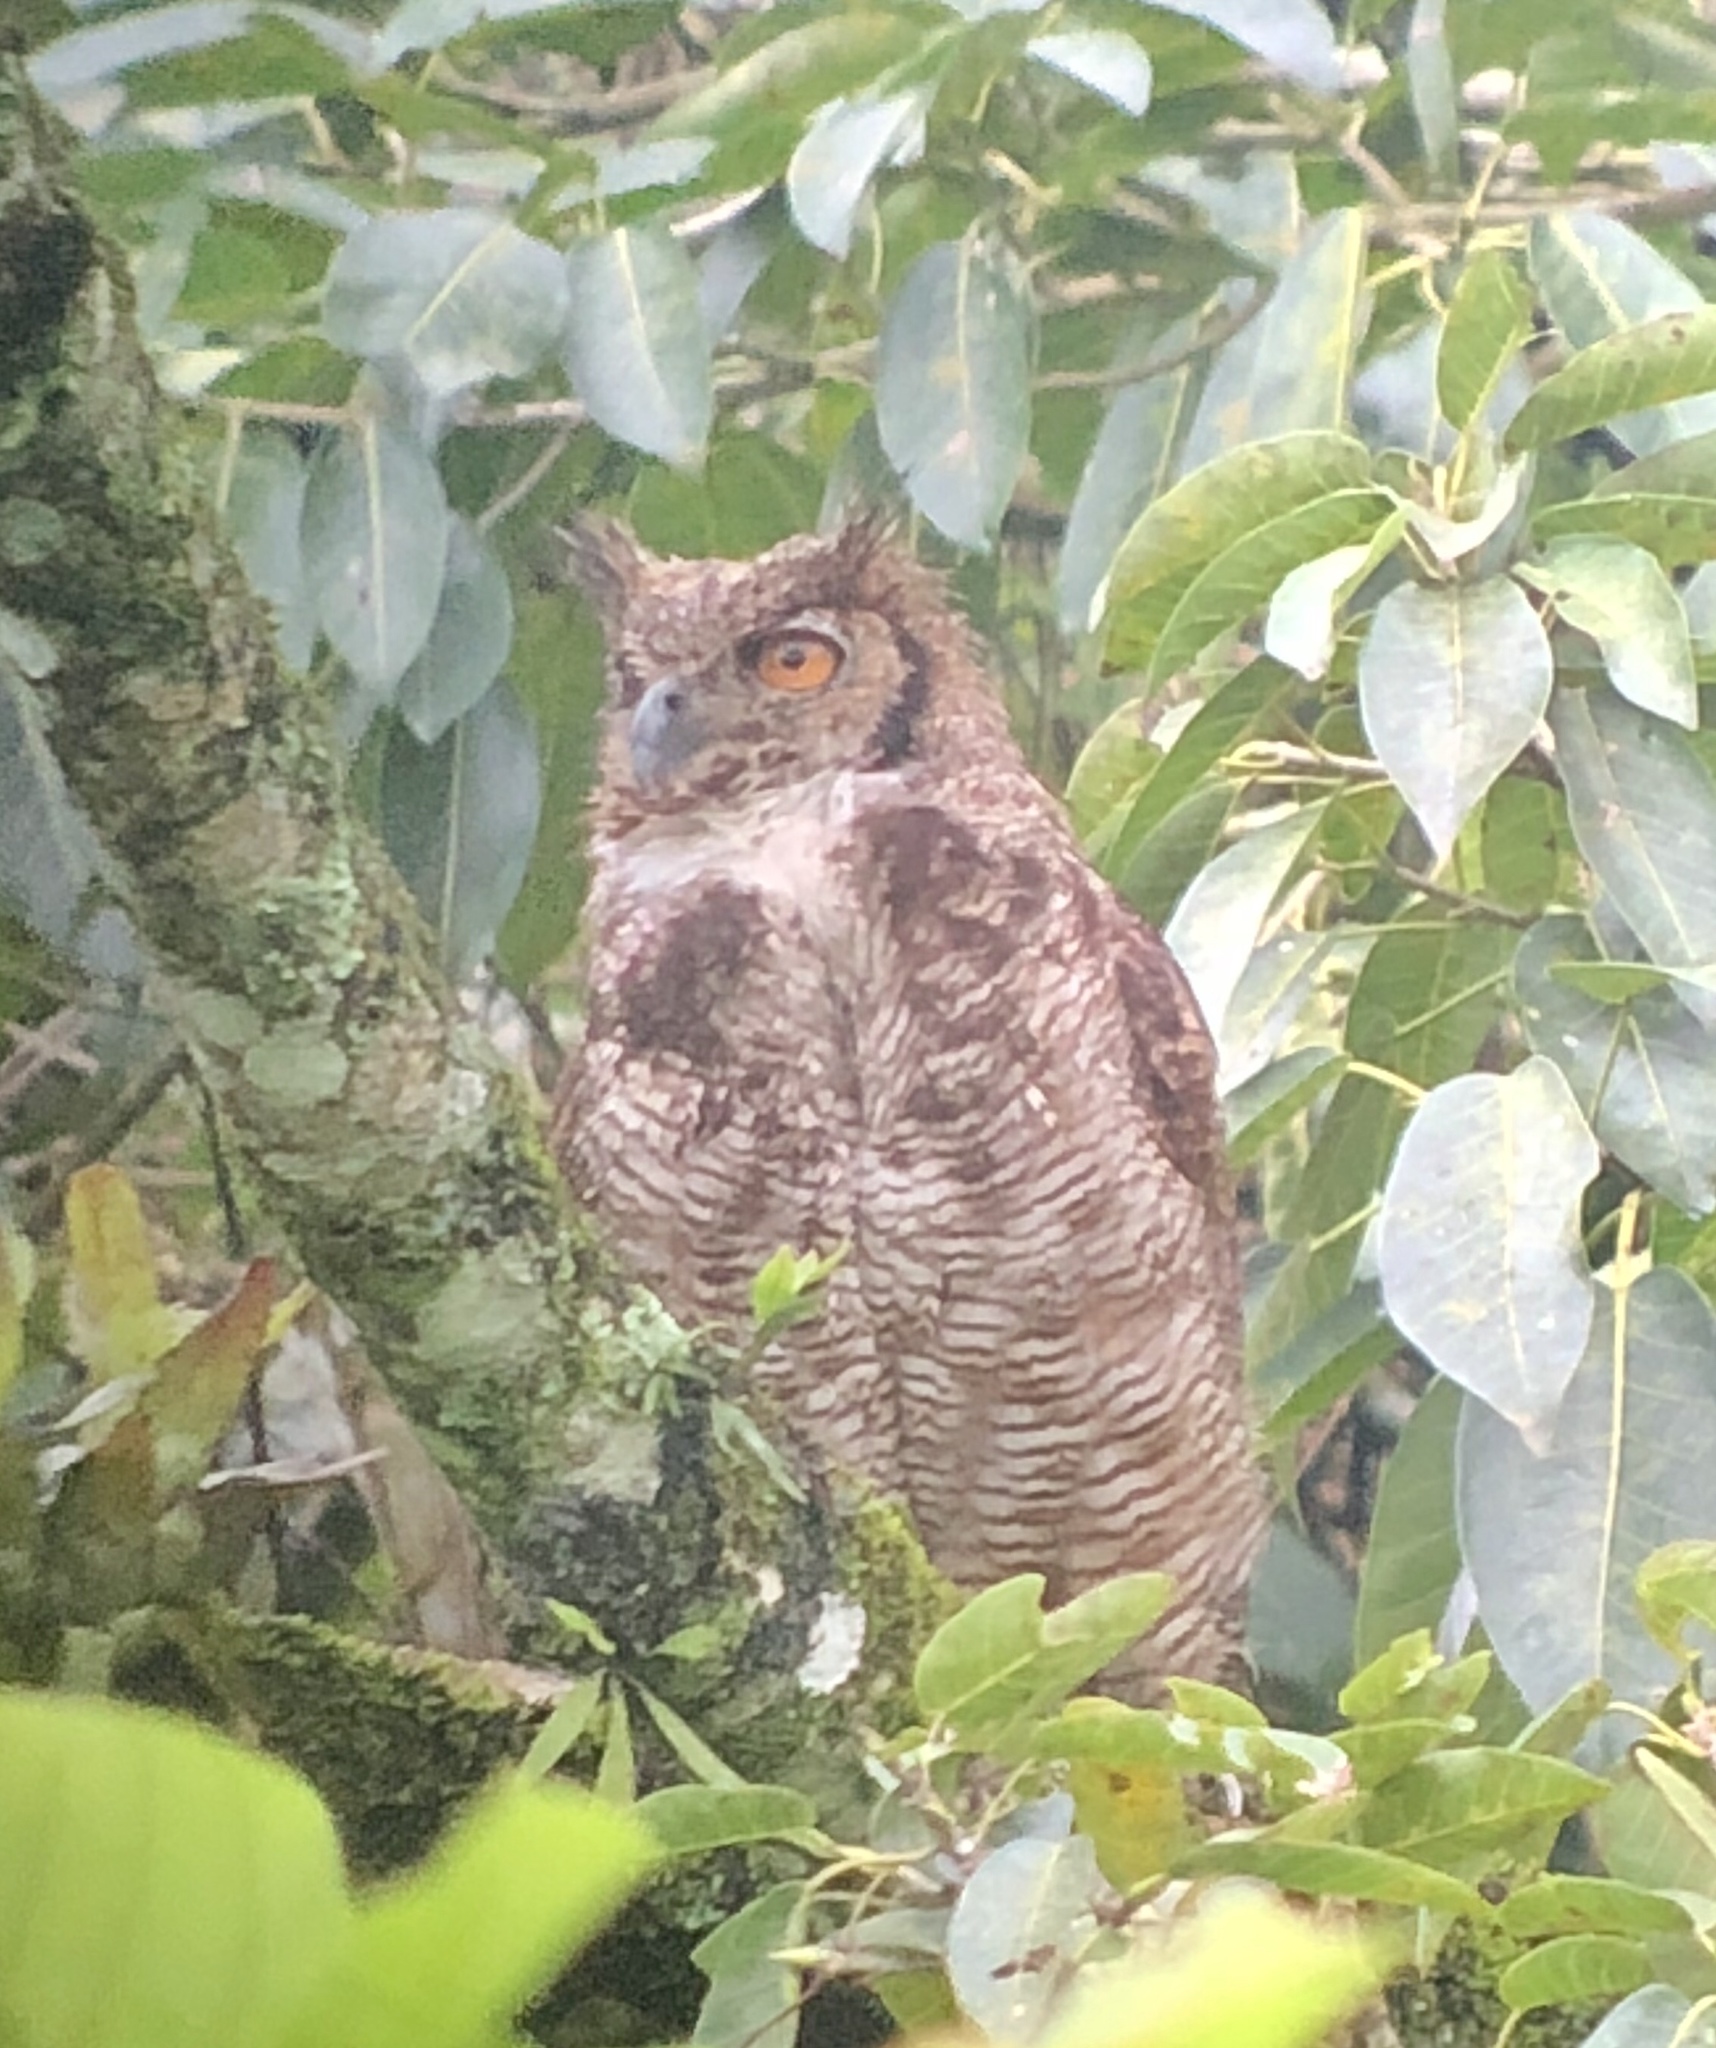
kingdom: Animalia
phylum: Chordata
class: Aves
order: Strigiformes
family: Strigidae
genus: Bubo
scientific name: Bubo virginianus
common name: Great horned owl
